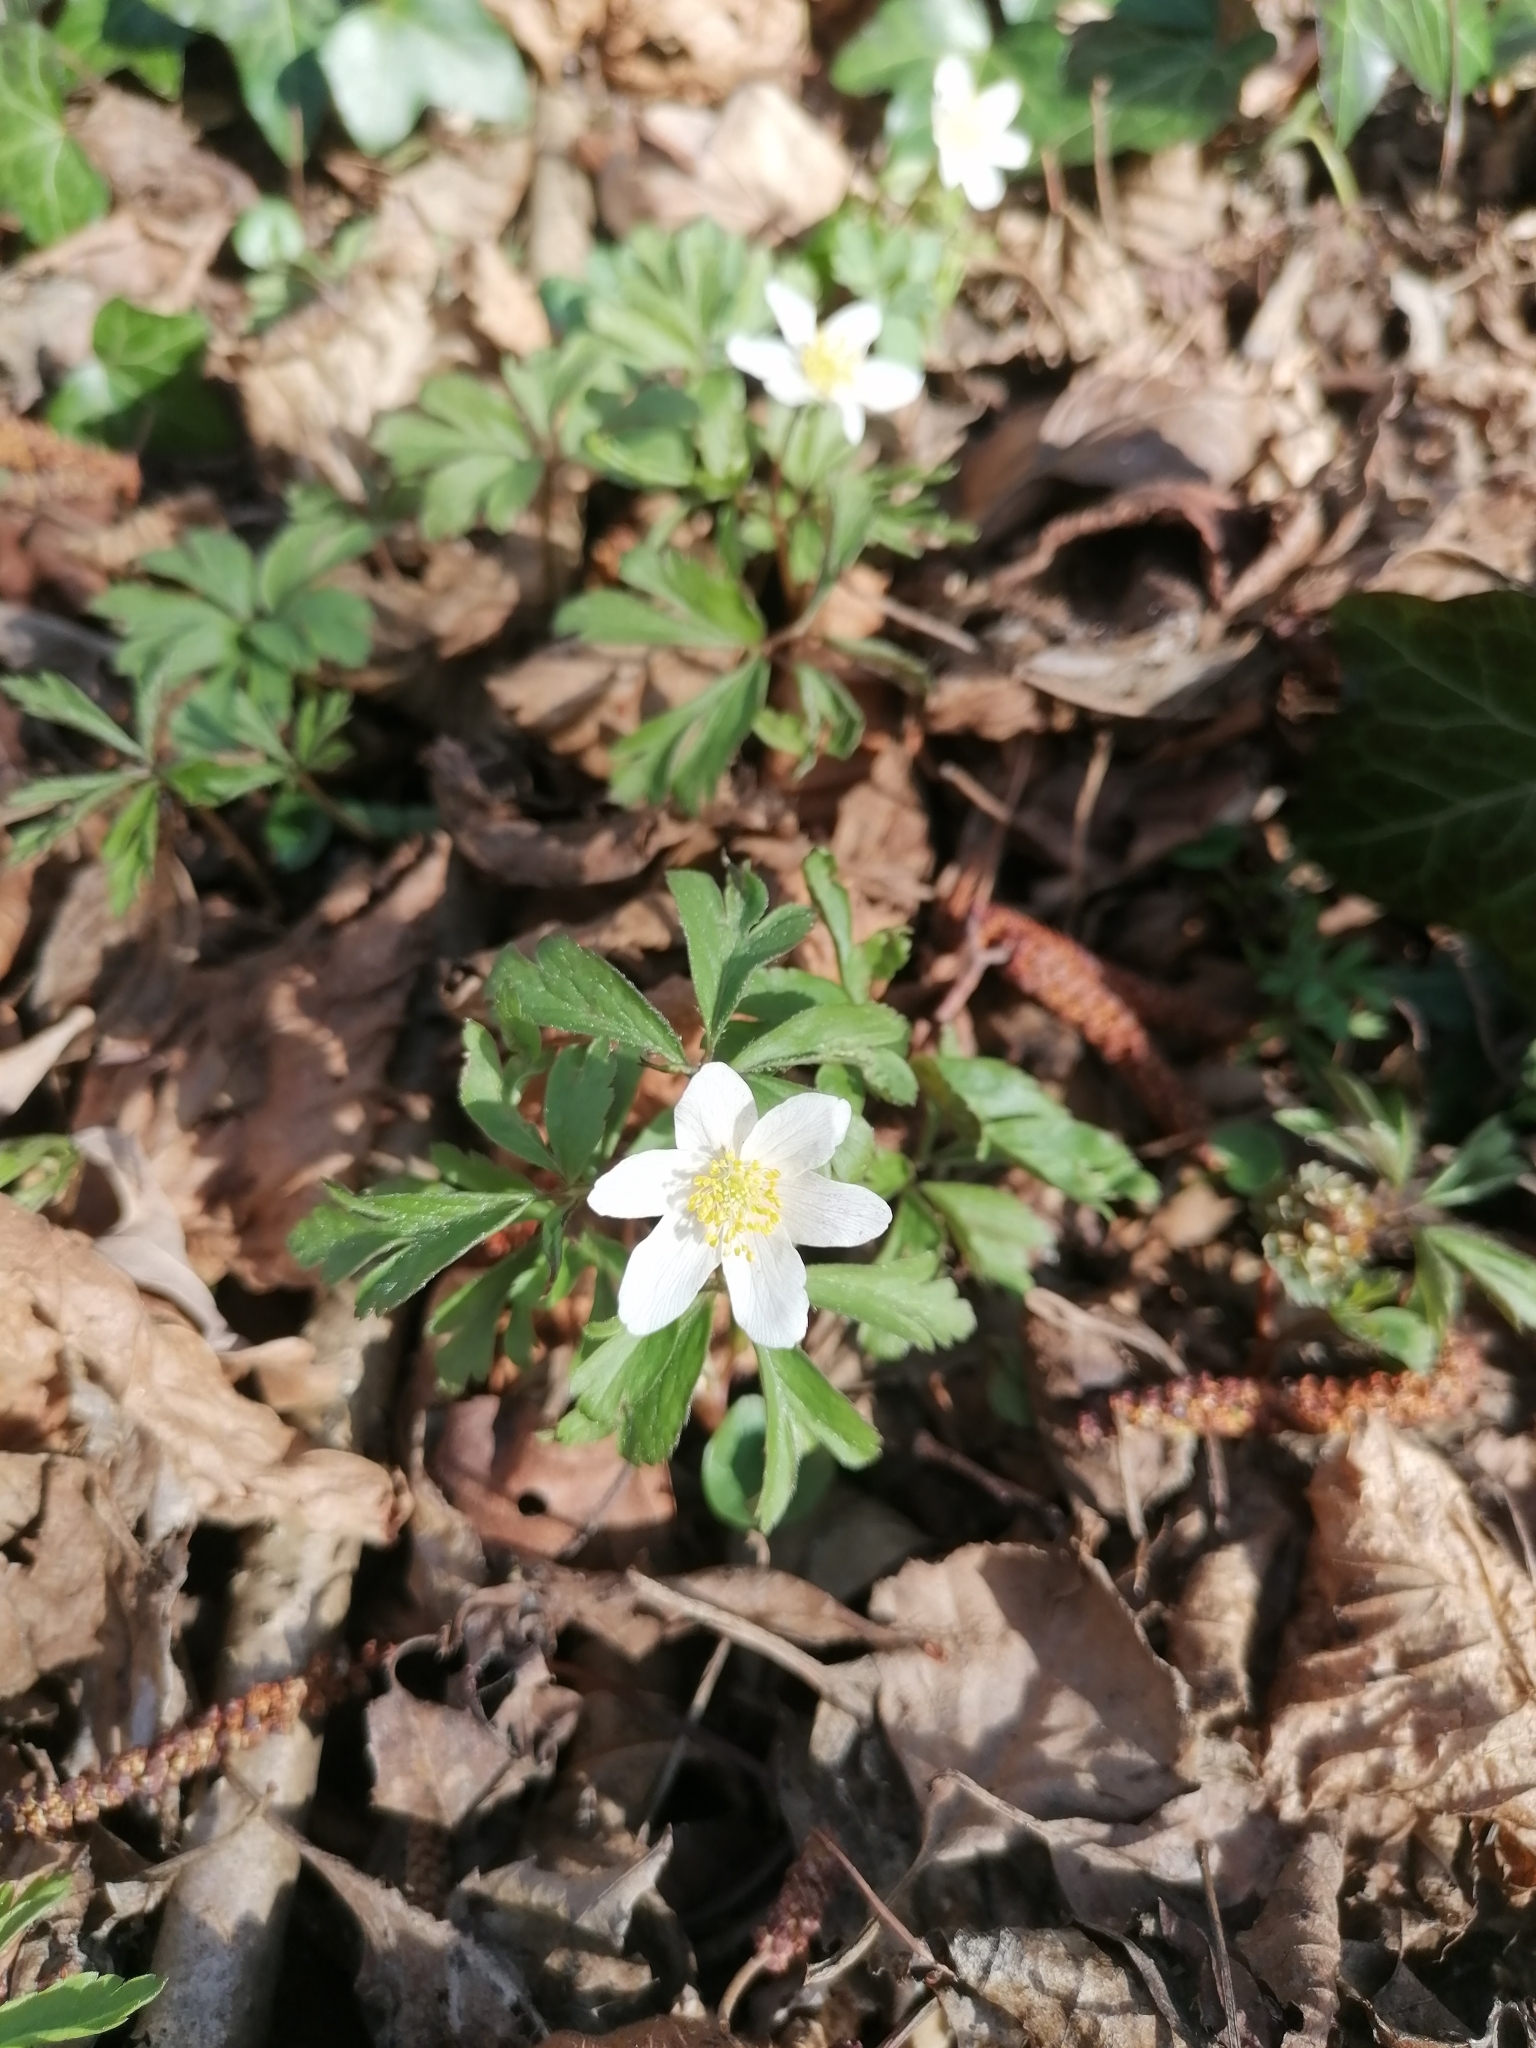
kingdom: Plantae
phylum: Tracheophyta
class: Magnoliopsida
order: Ranunculales
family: Ranunculaceae
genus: Anemone
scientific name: Anemone nemorosa
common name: Wood anemone
